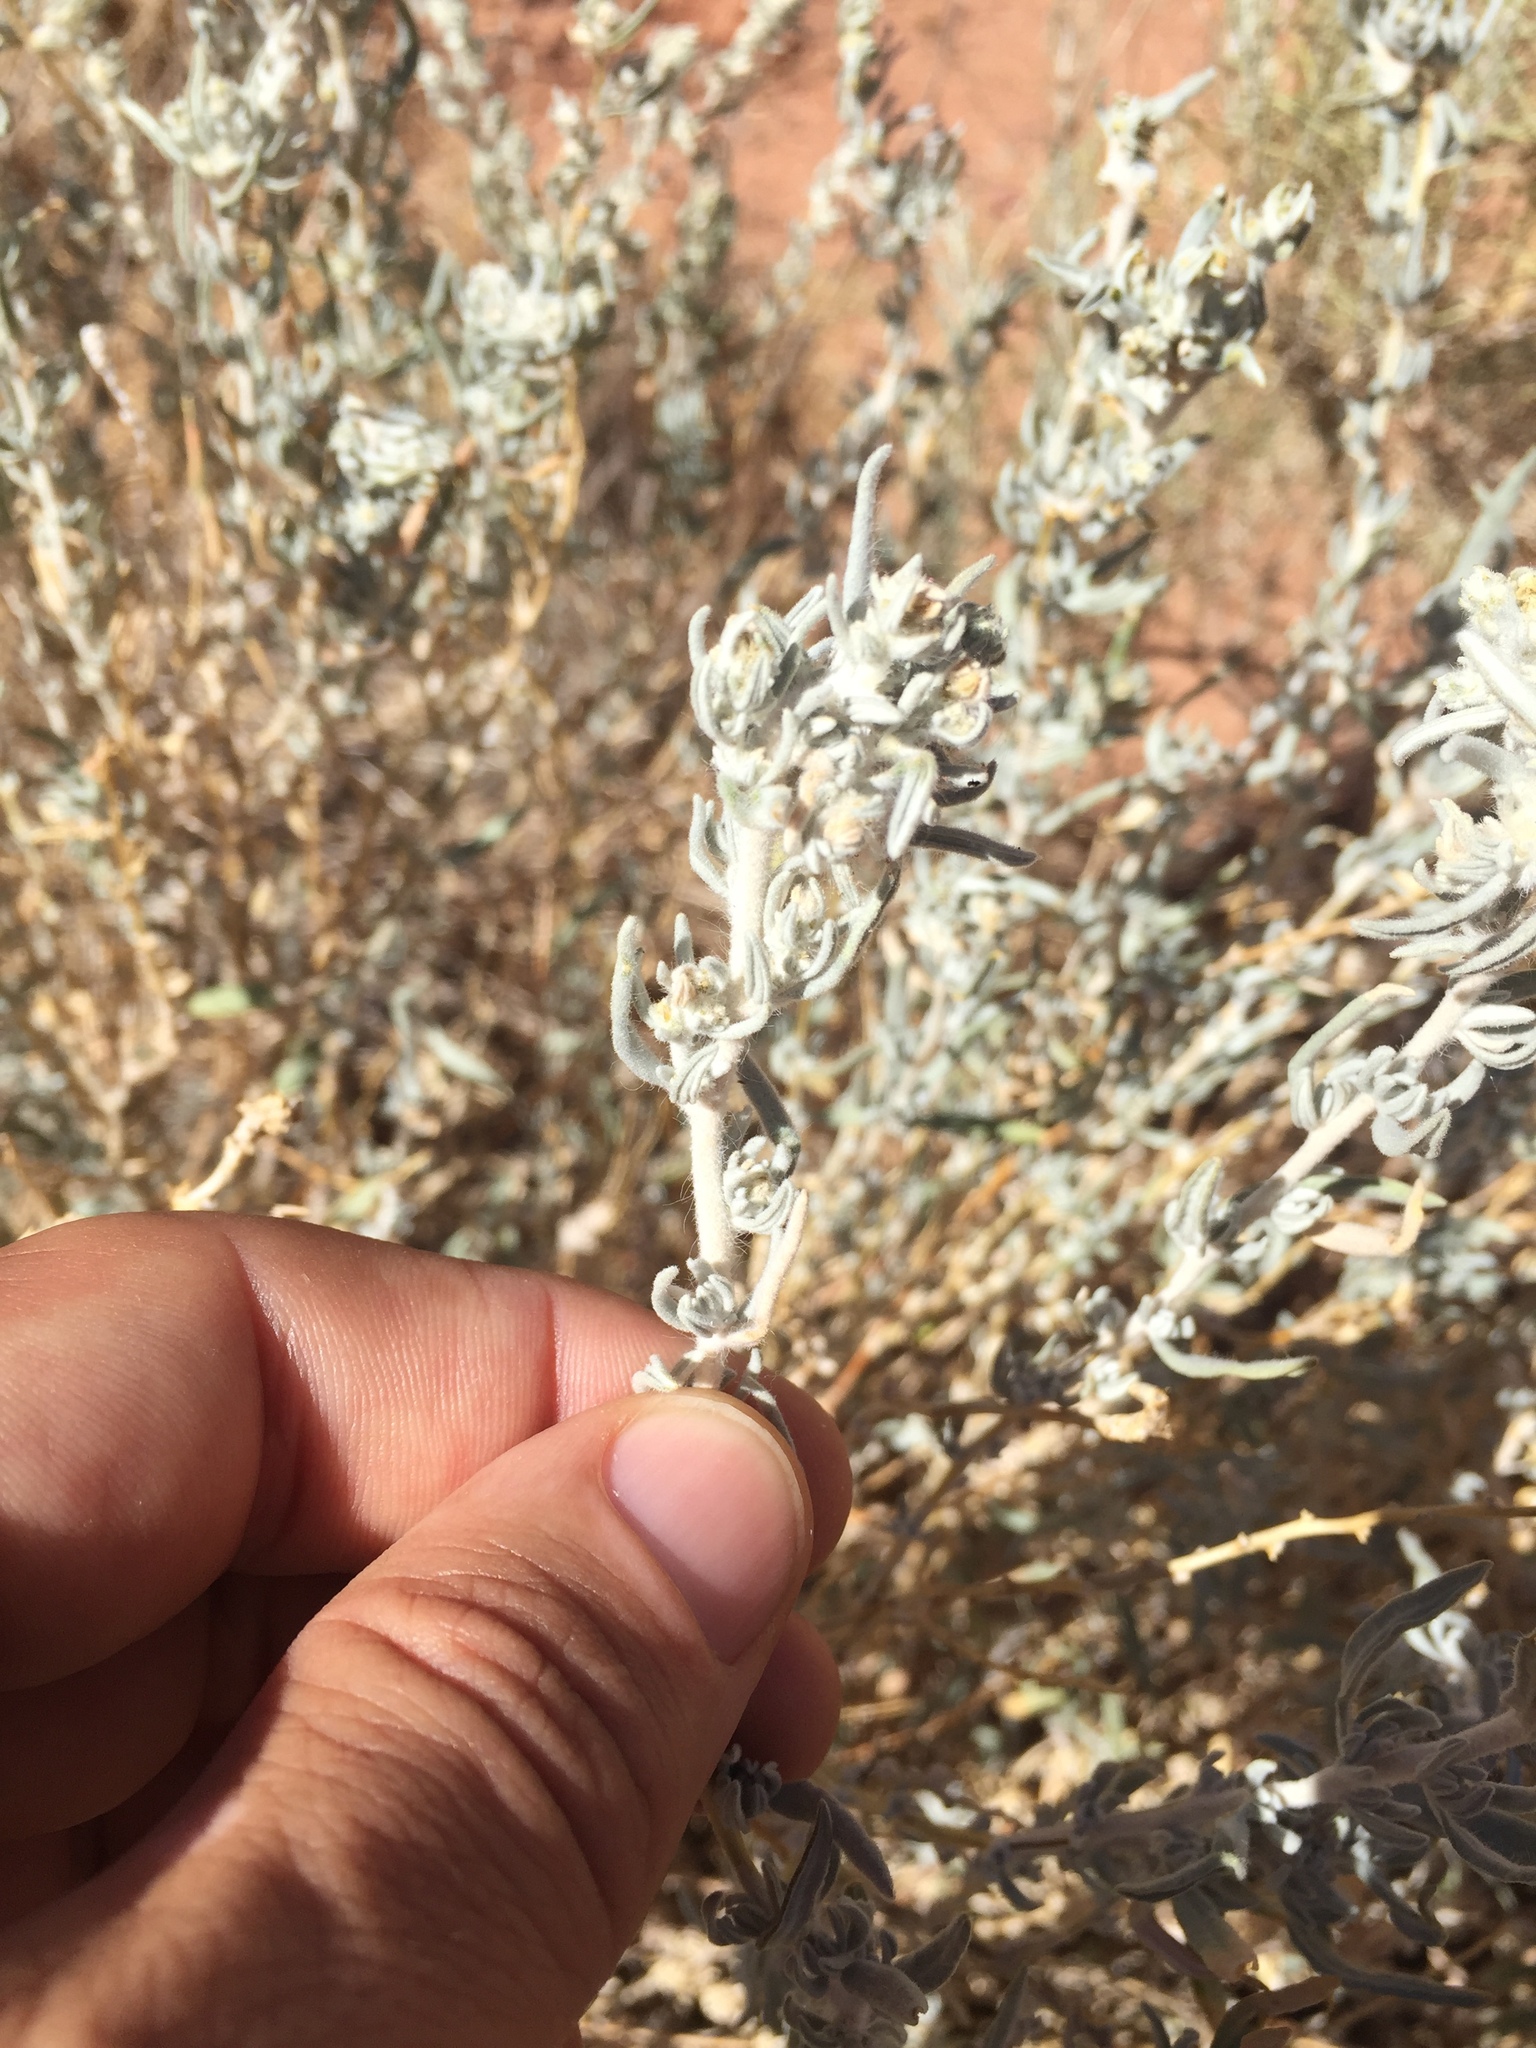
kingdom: Plantae
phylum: Tracheophyta
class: Magnoliopsida
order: Caryophyllales
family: Amaranthaceae
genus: Krascheninnikovia
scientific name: Krascheninnikovia lanata
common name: Winterfat
